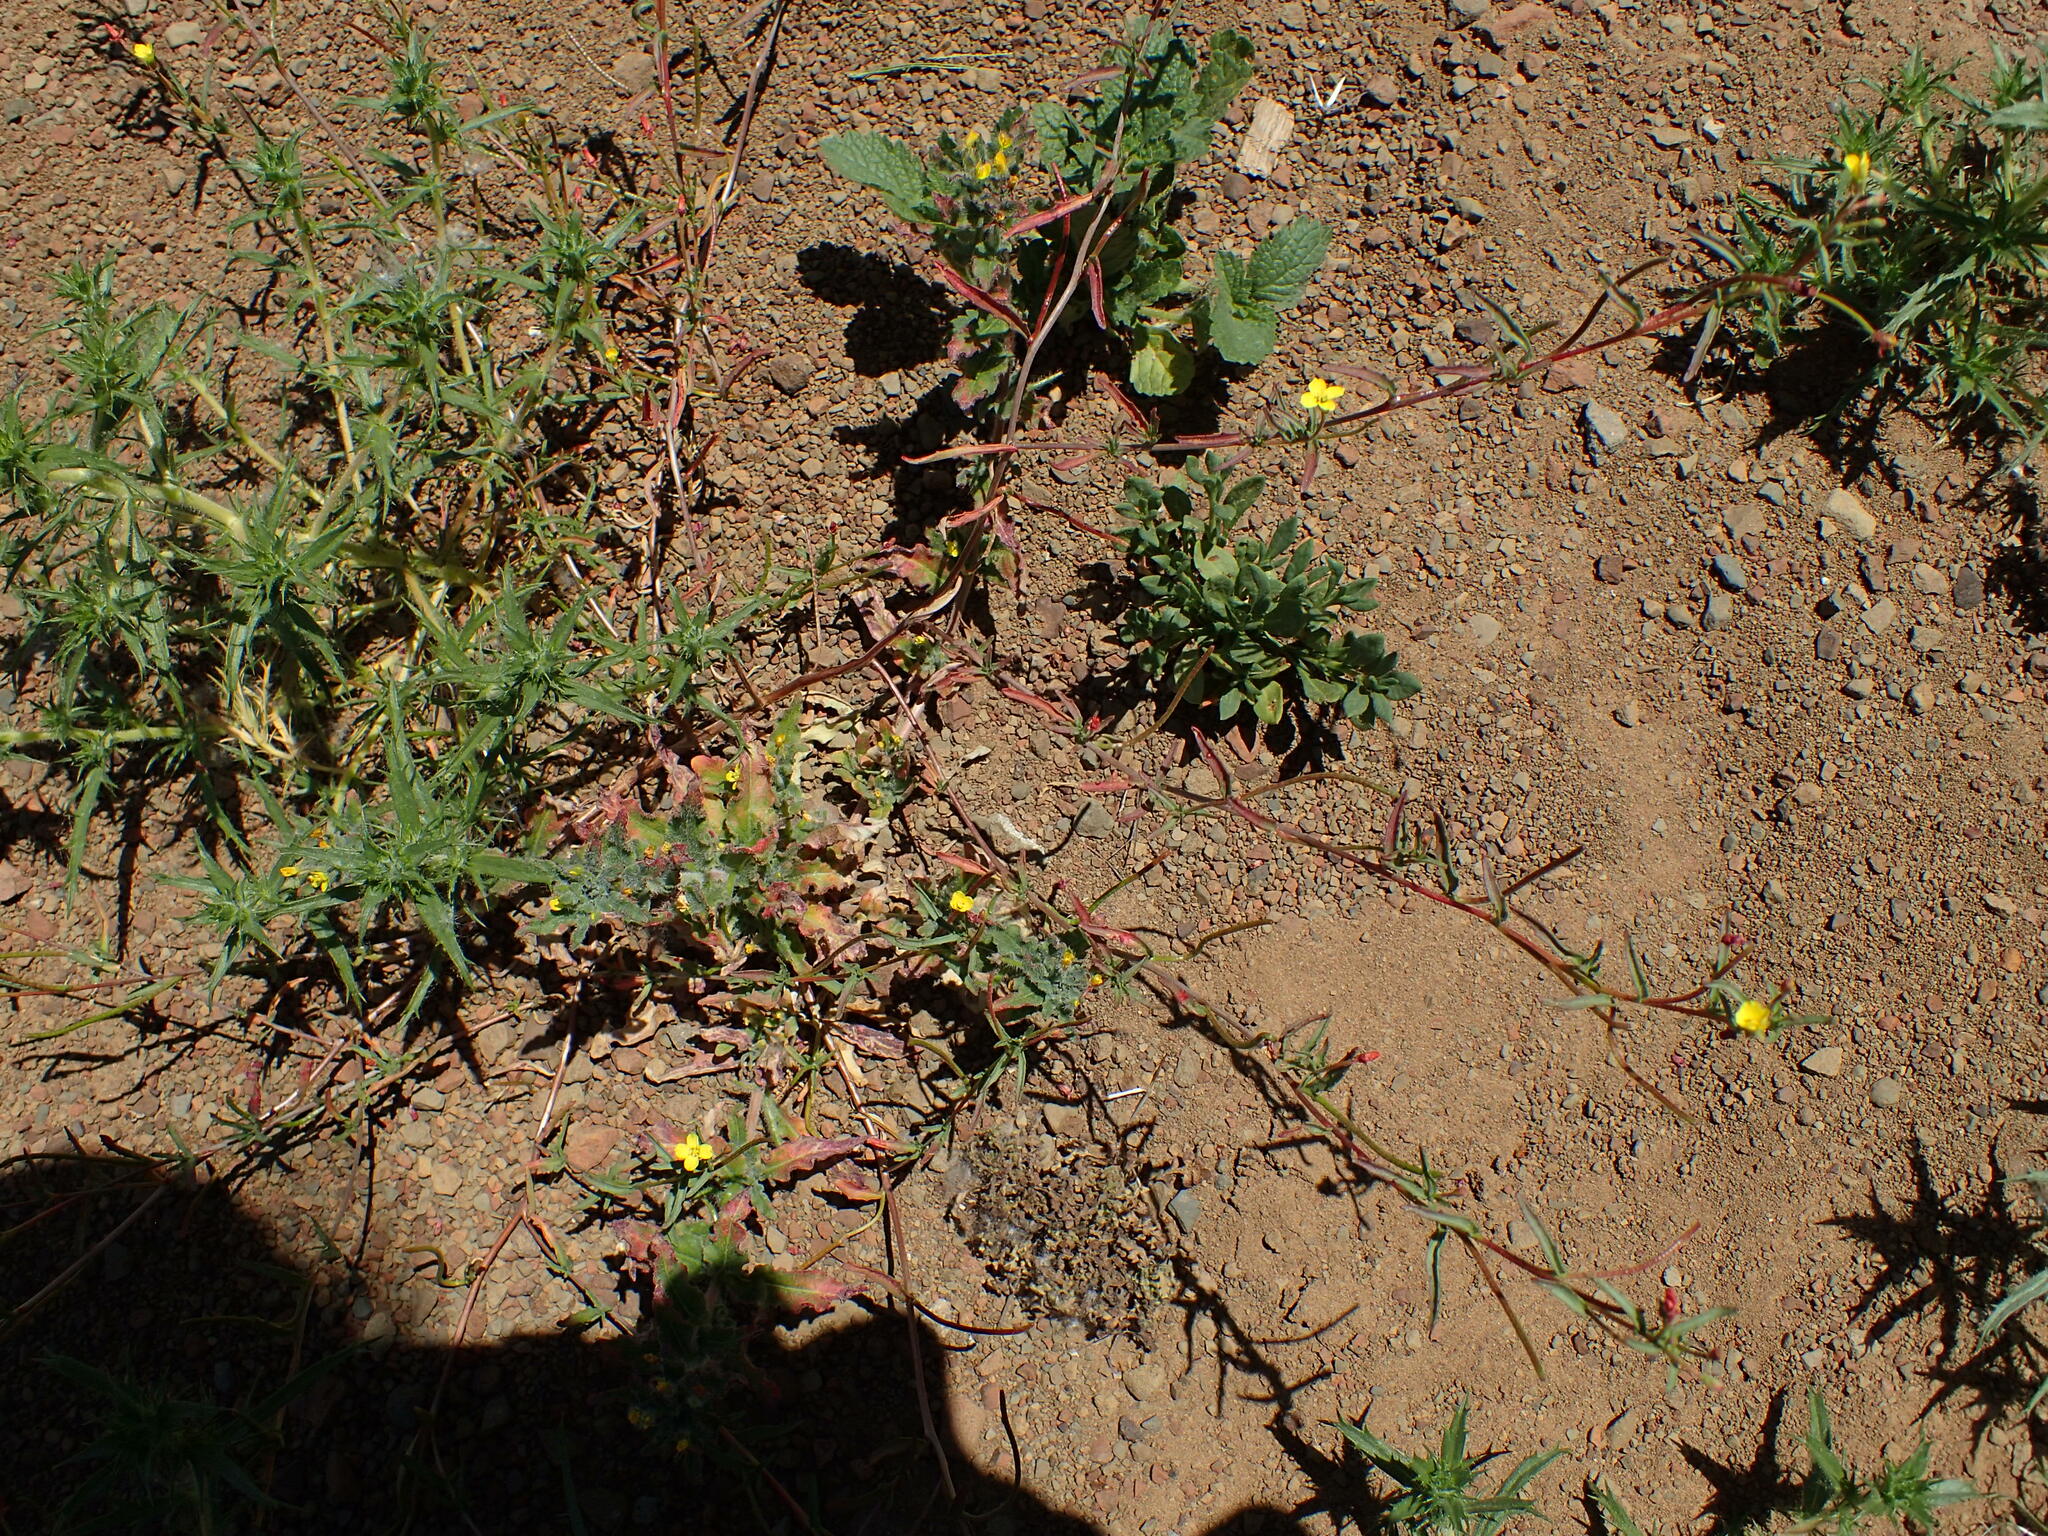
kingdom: Plantae
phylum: Tracheophyta
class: Magnoliopsida
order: Myrtales
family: Onagraceae
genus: Camissonia
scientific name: Camissonia contorta
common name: Contorted suncup
